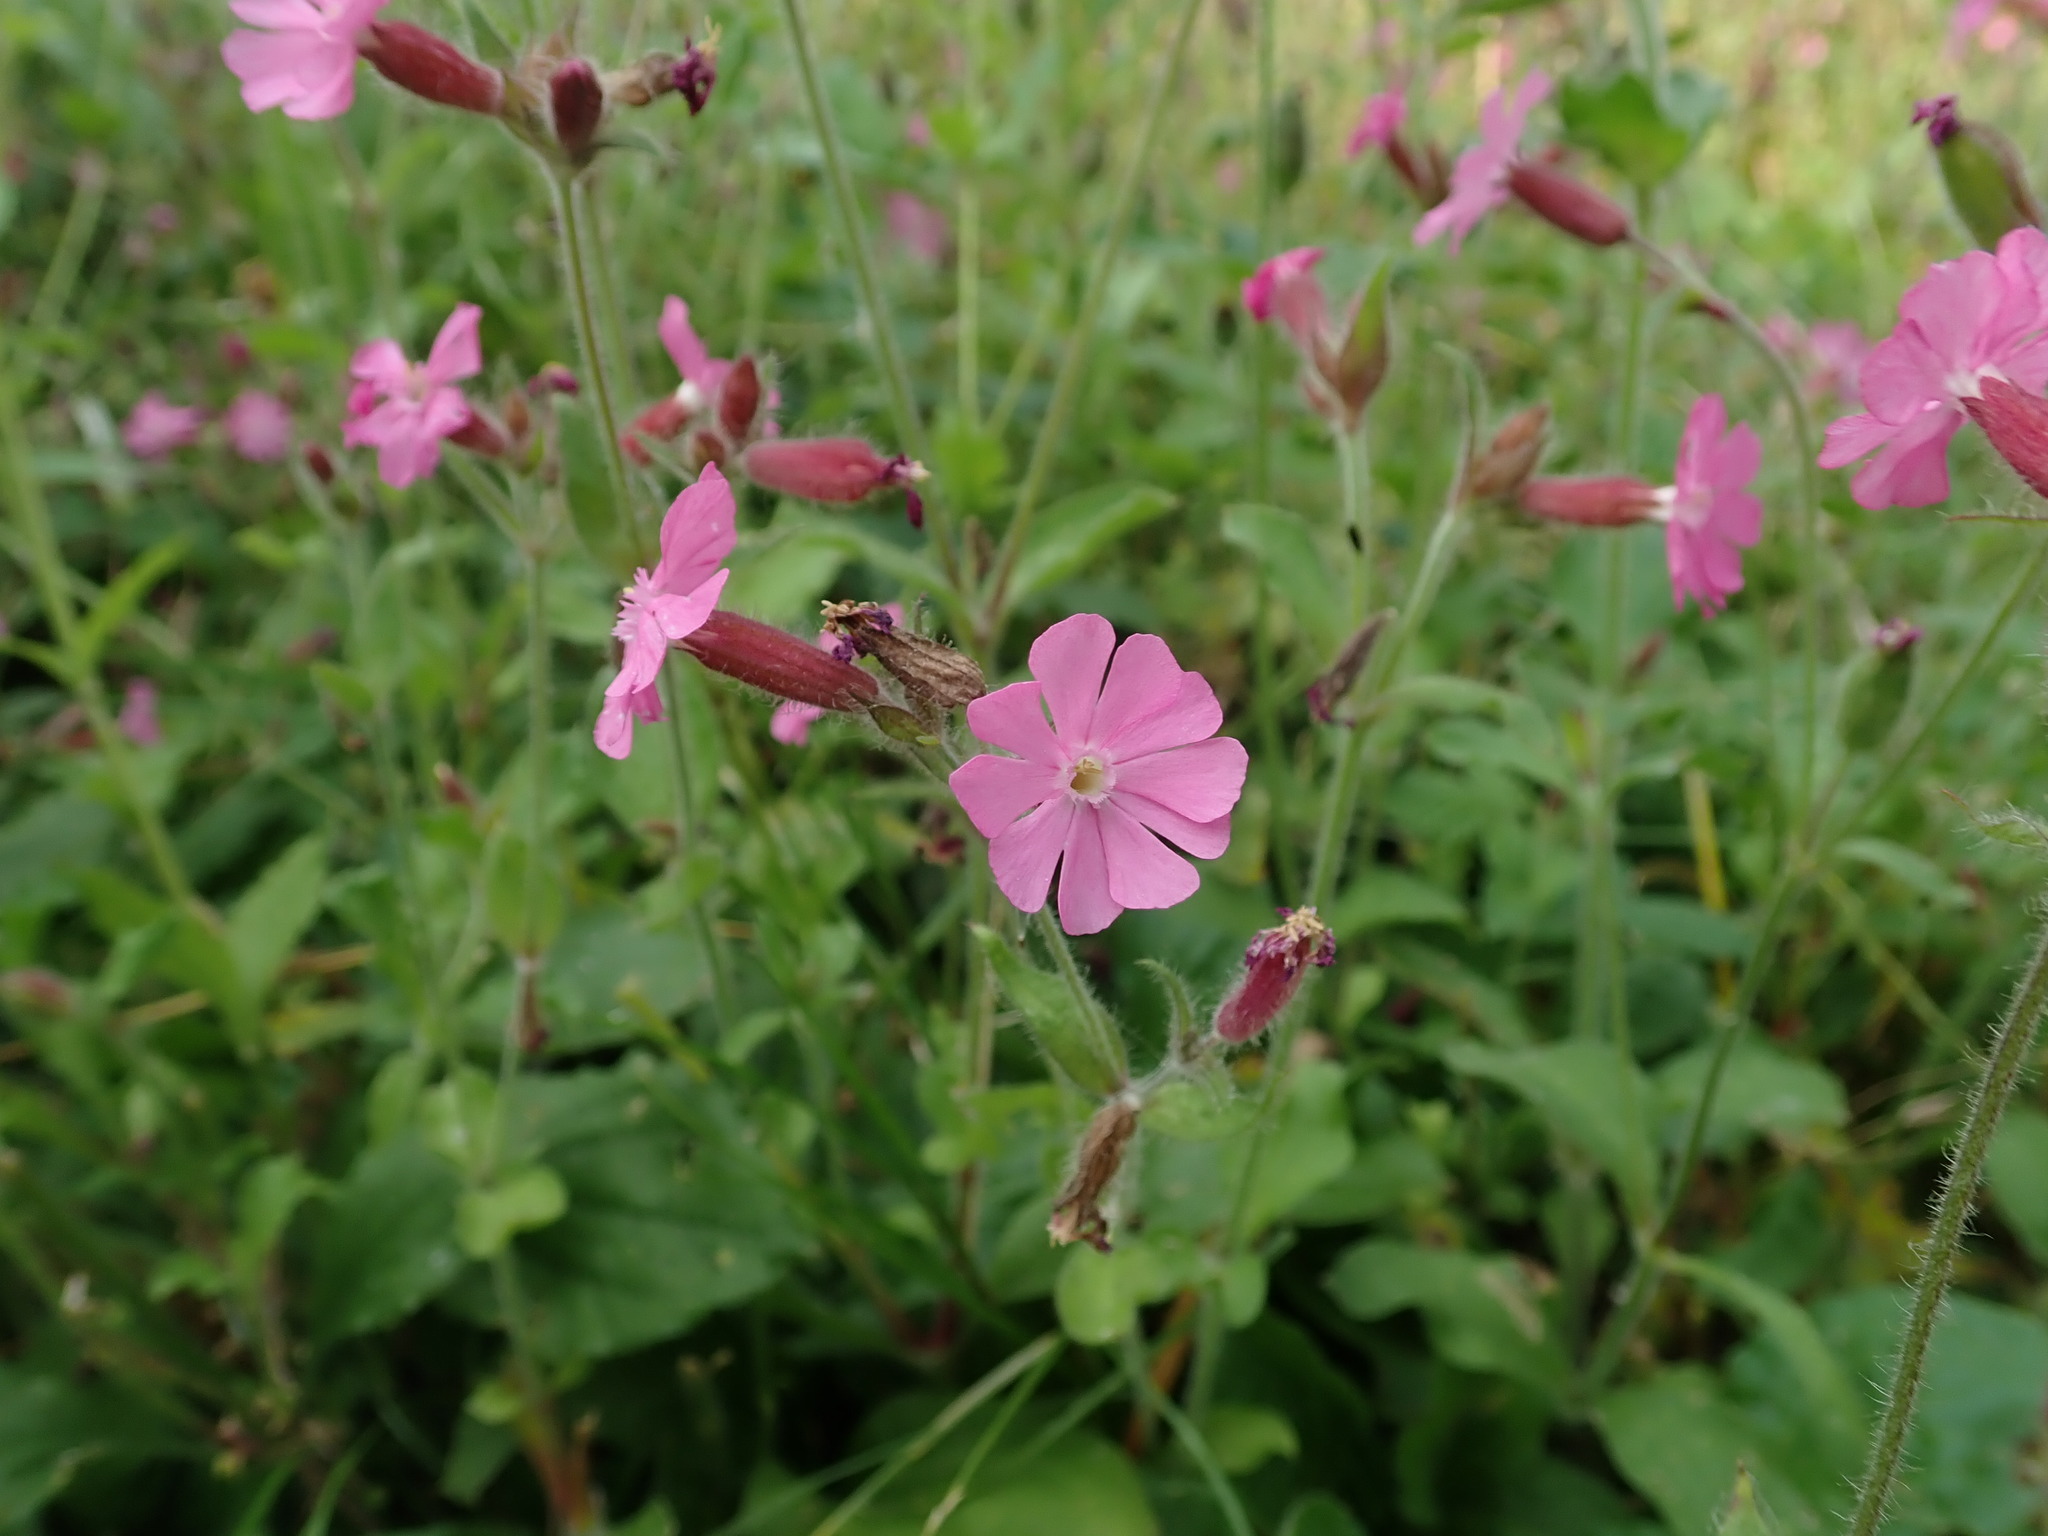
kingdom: Plantae
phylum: Tracheophyta
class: Magnoliopsida
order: Caryophyllales
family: Caryophyllaceae
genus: Silene
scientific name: Silene dioica
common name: Red campion
